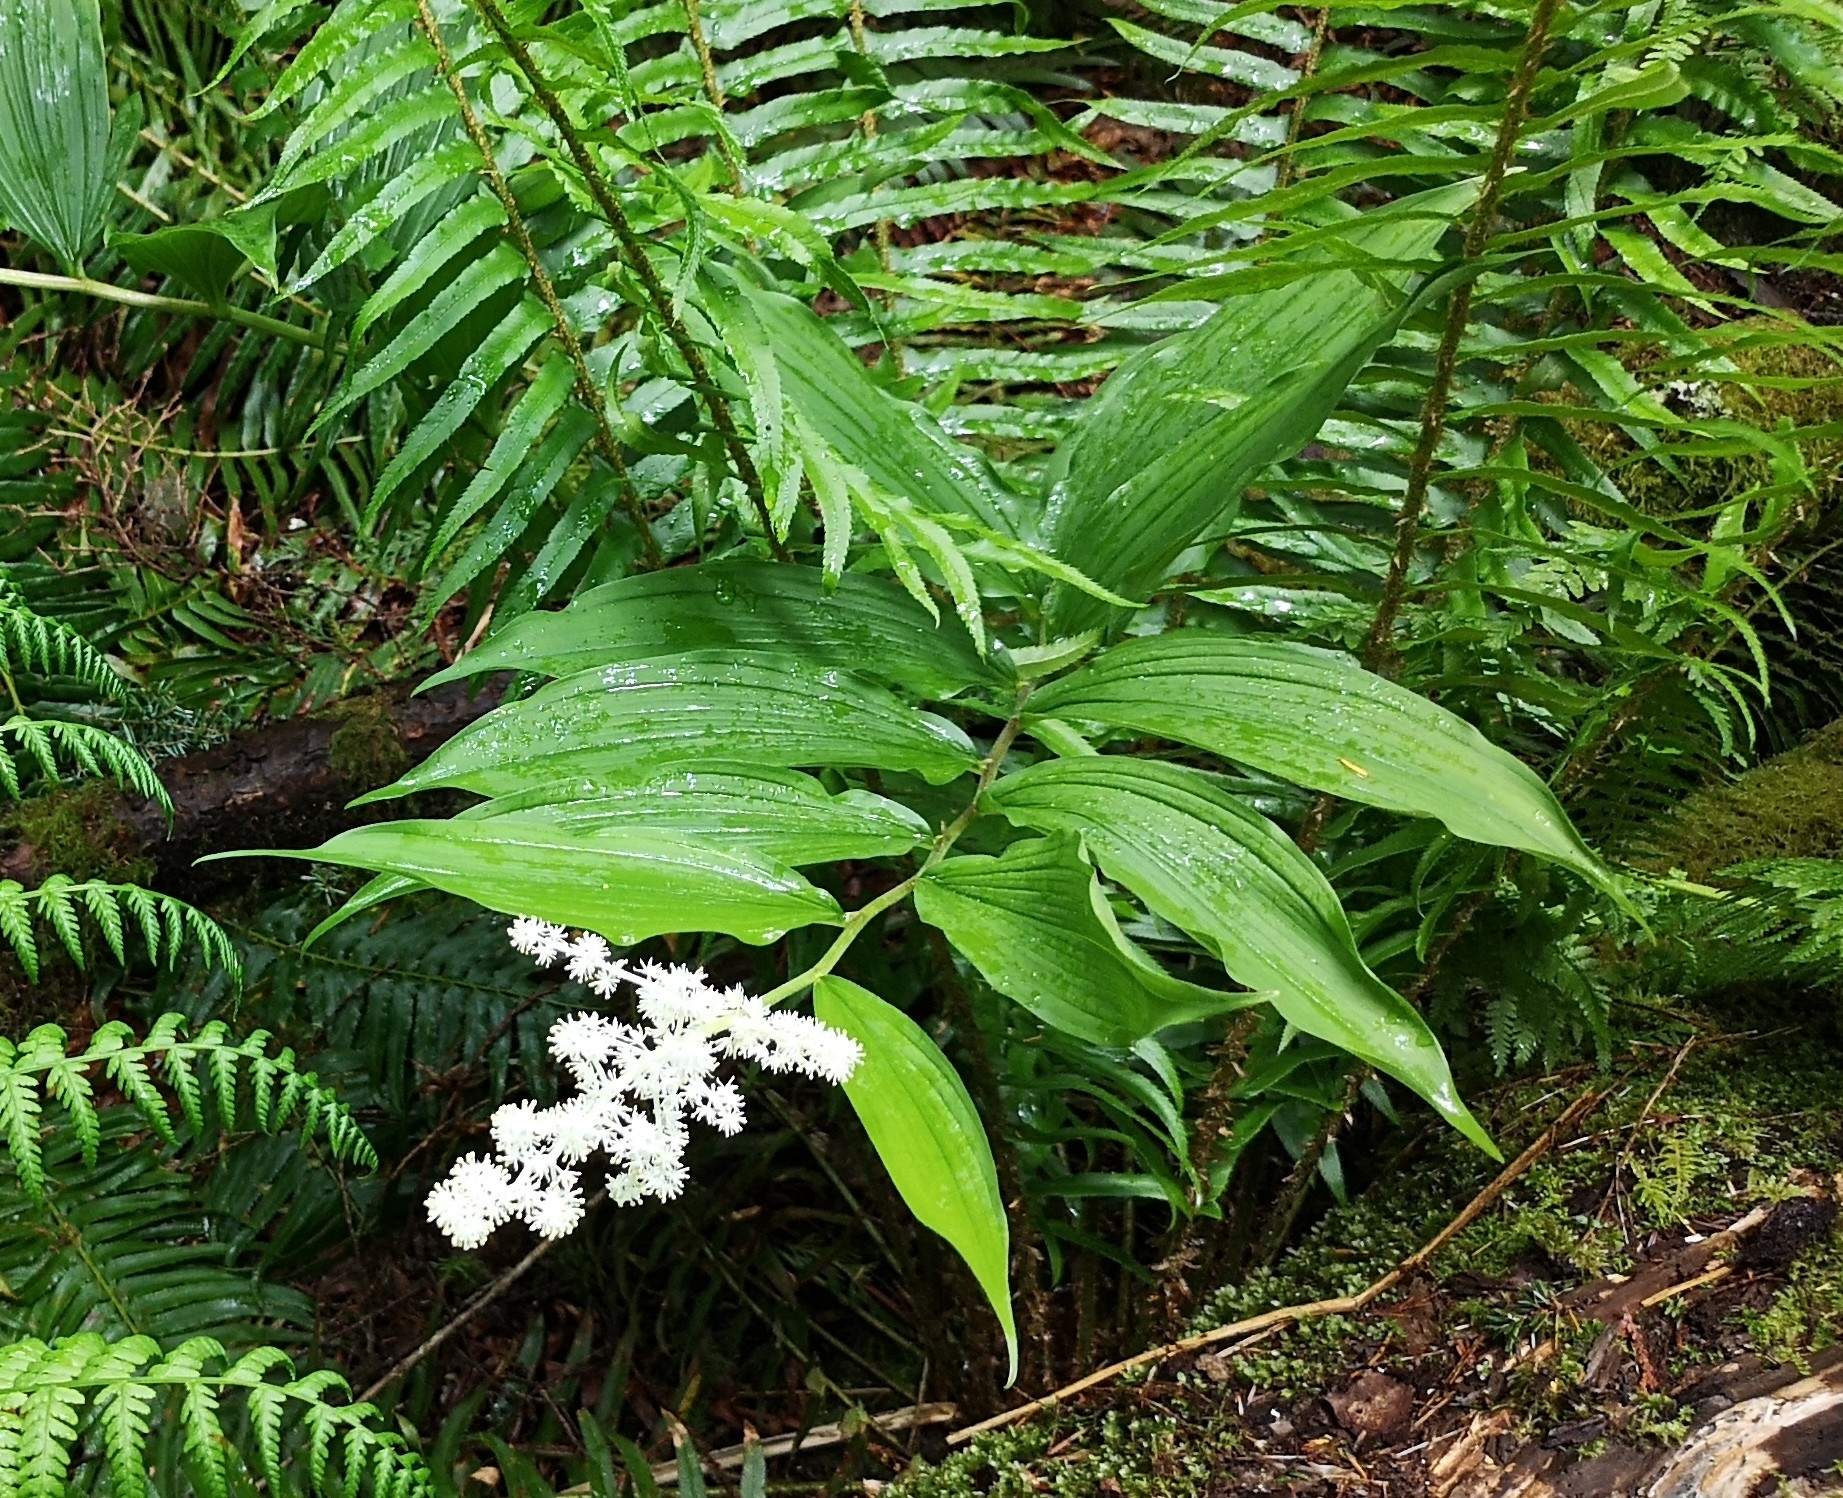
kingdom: Plantae
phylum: Tracheophyta
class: Liliopsida
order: Asparagales
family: Asparagaceae
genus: Maianthemum
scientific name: Maianthemum racemosum
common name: False spikenard
